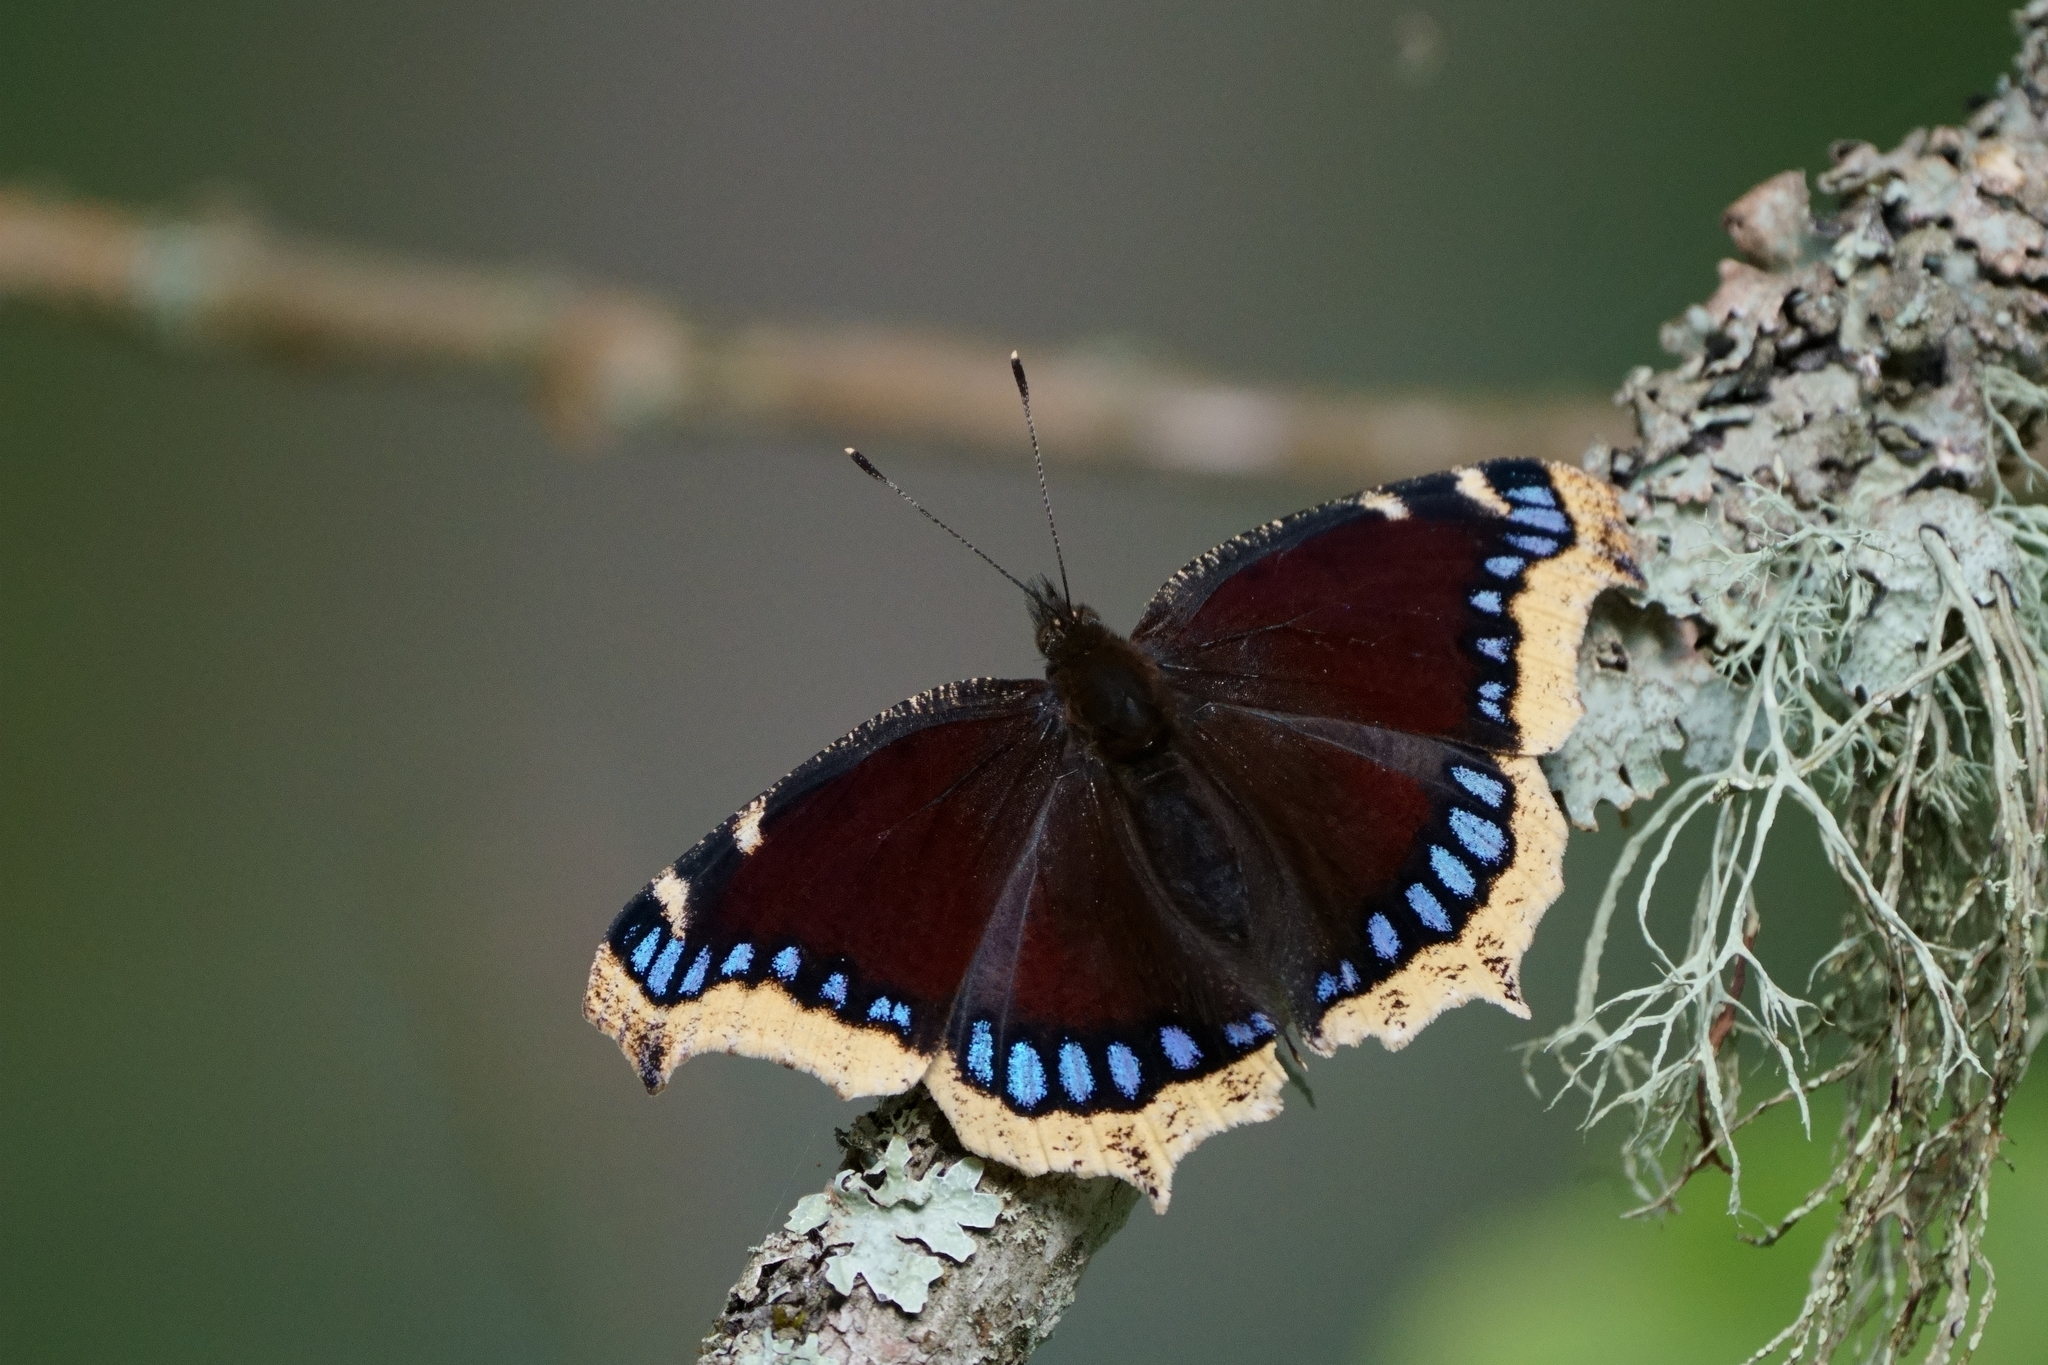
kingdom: Animalia
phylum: Arthropoda
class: Insecta
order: Lepidoptera
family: Nymphalidae
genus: Nymphalis
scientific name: Nymphalis antiopa
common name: Camberwell beauty
